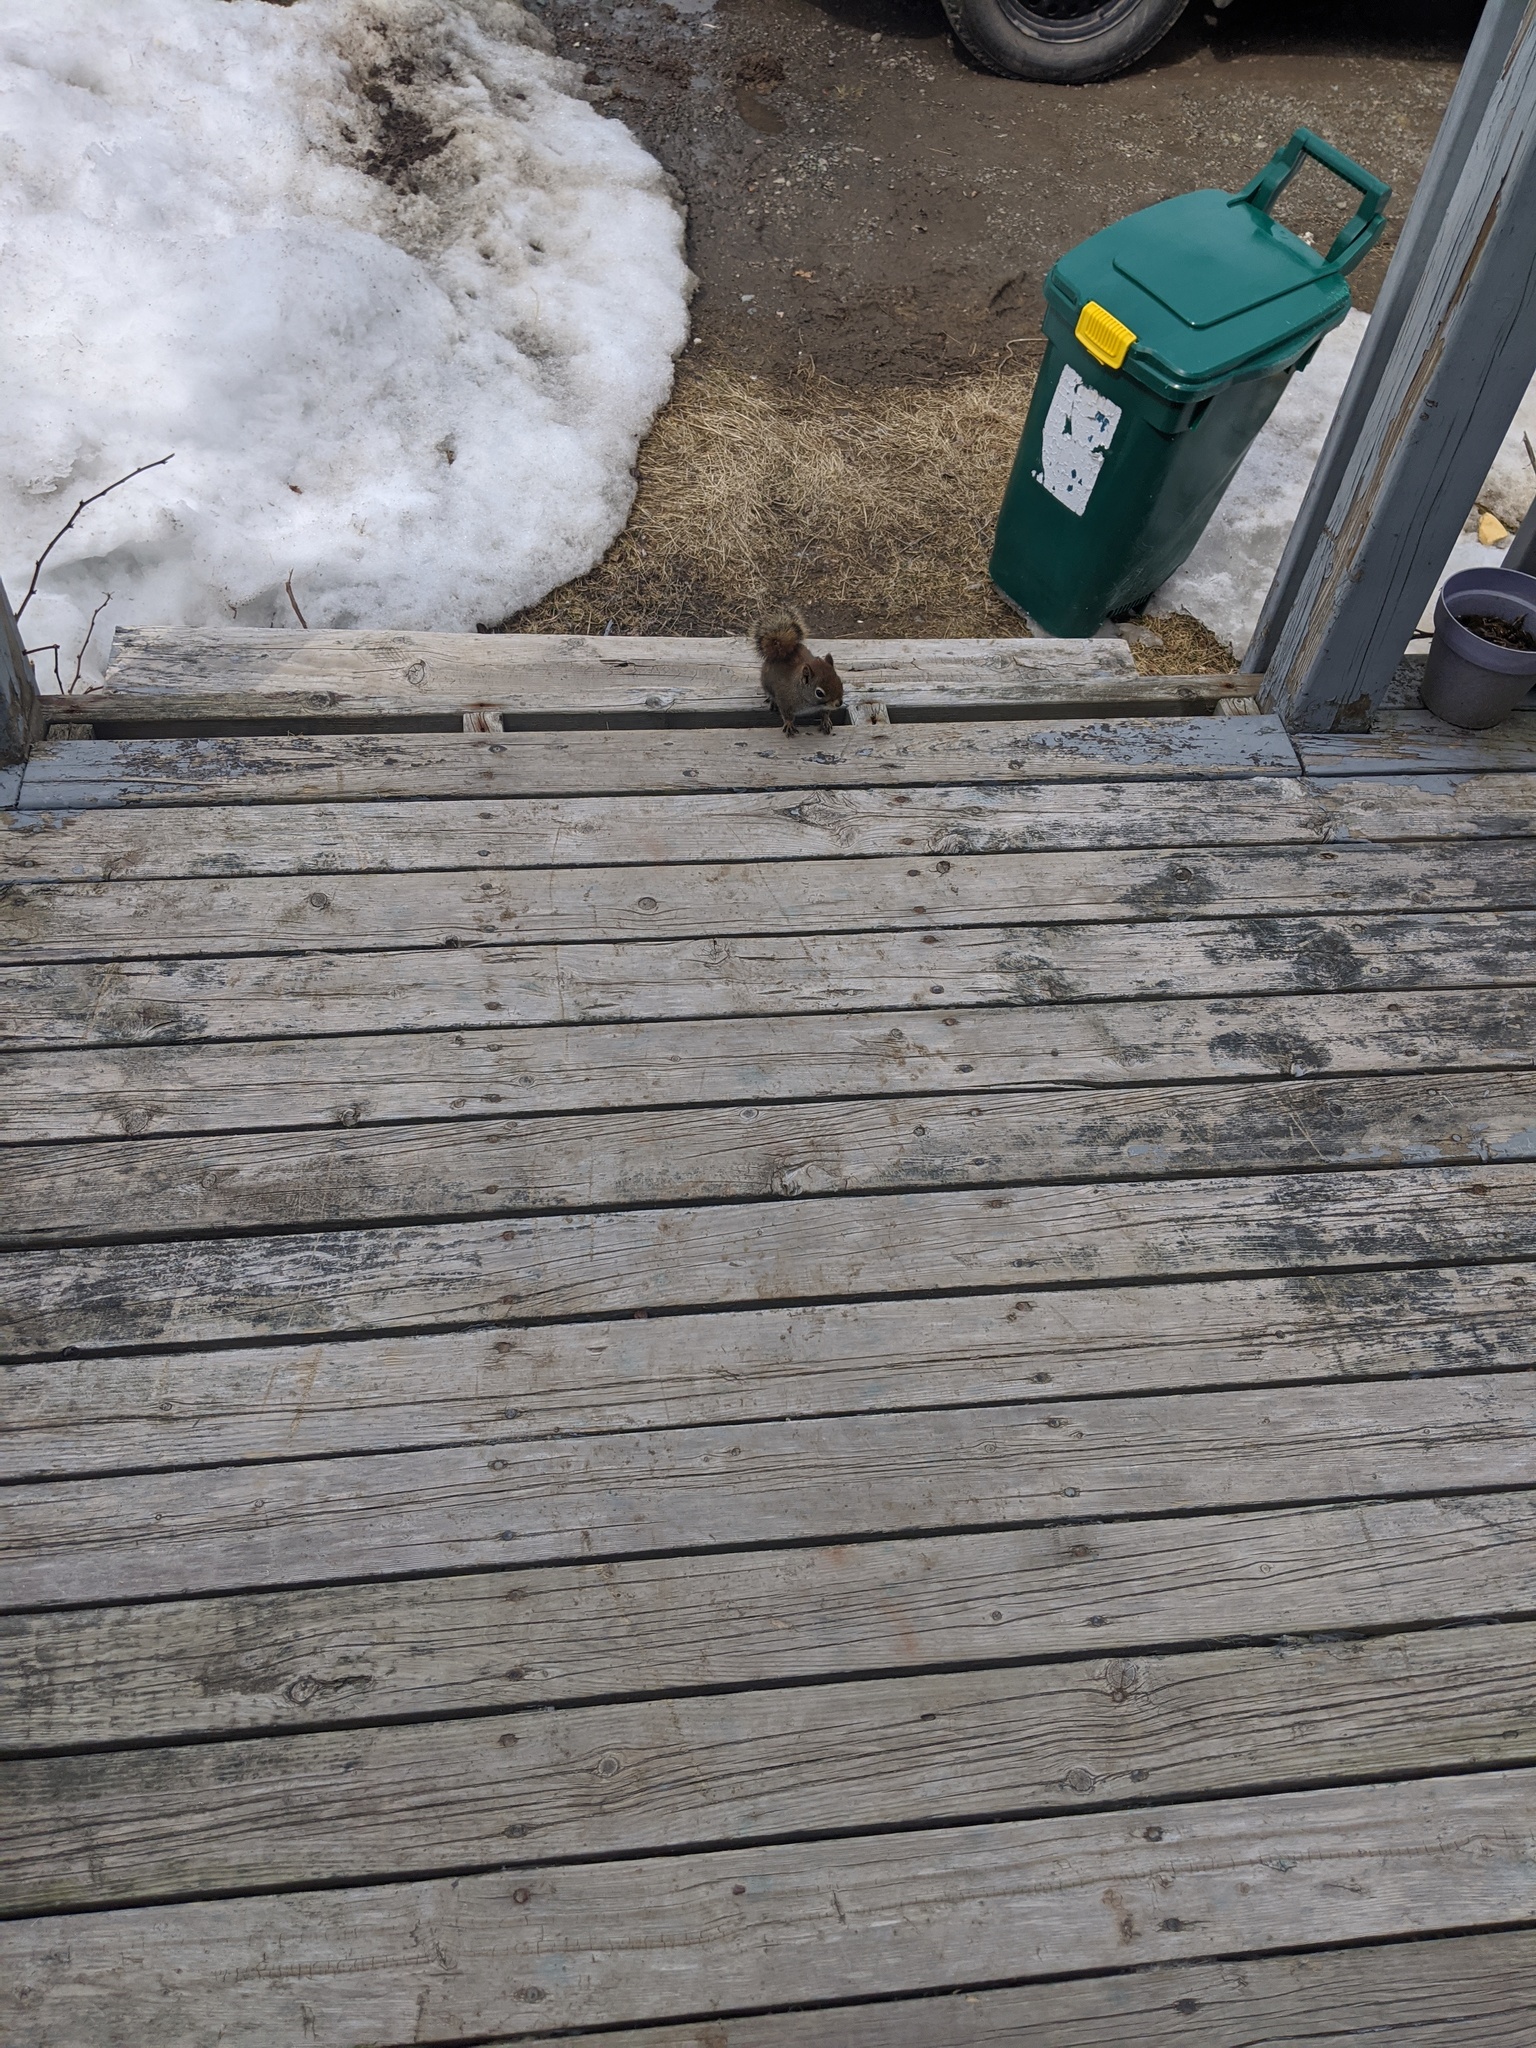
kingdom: Animalia
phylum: Chordata
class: Mammalia
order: Rodentia
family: Sciuridae
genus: Tamiasciurus
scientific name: Tamiasciurus hudsonicus
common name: Red squirrel
